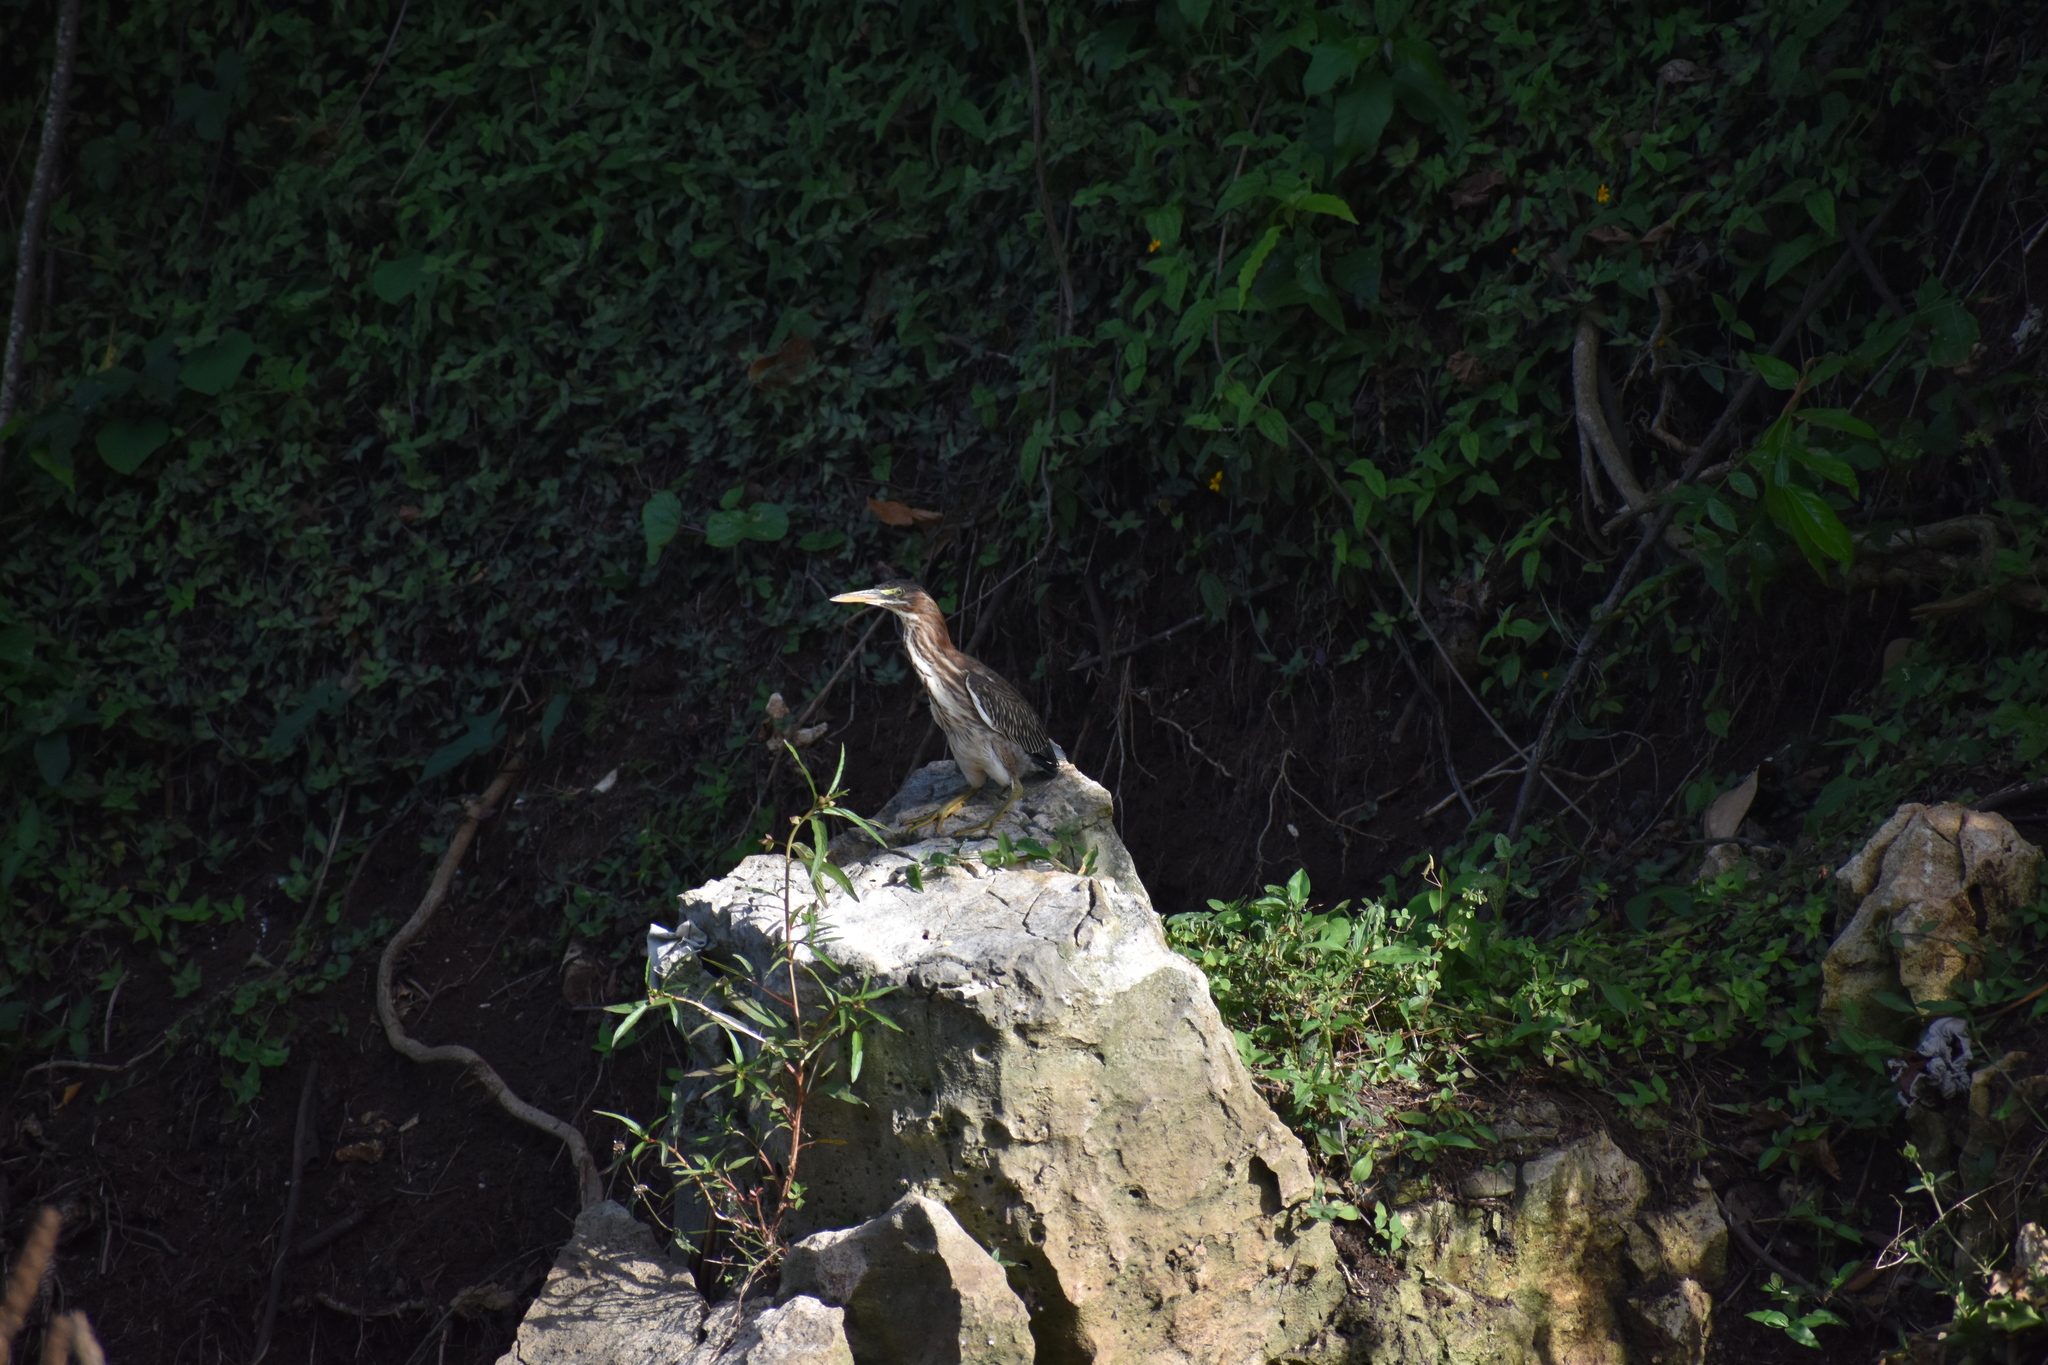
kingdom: Animalia
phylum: Chordata
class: Aves
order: Pelecaniformes
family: Ardeidae
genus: Butorides
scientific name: Butorides virescens
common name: Green heron
